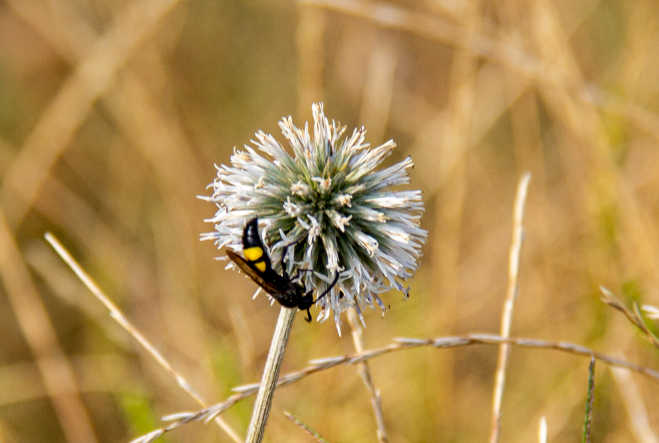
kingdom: Animalia
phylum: Arthropoda
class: Insecta
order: Hymenoptera
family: Scoliidae
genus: Scolia
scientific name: Scolia hirta
